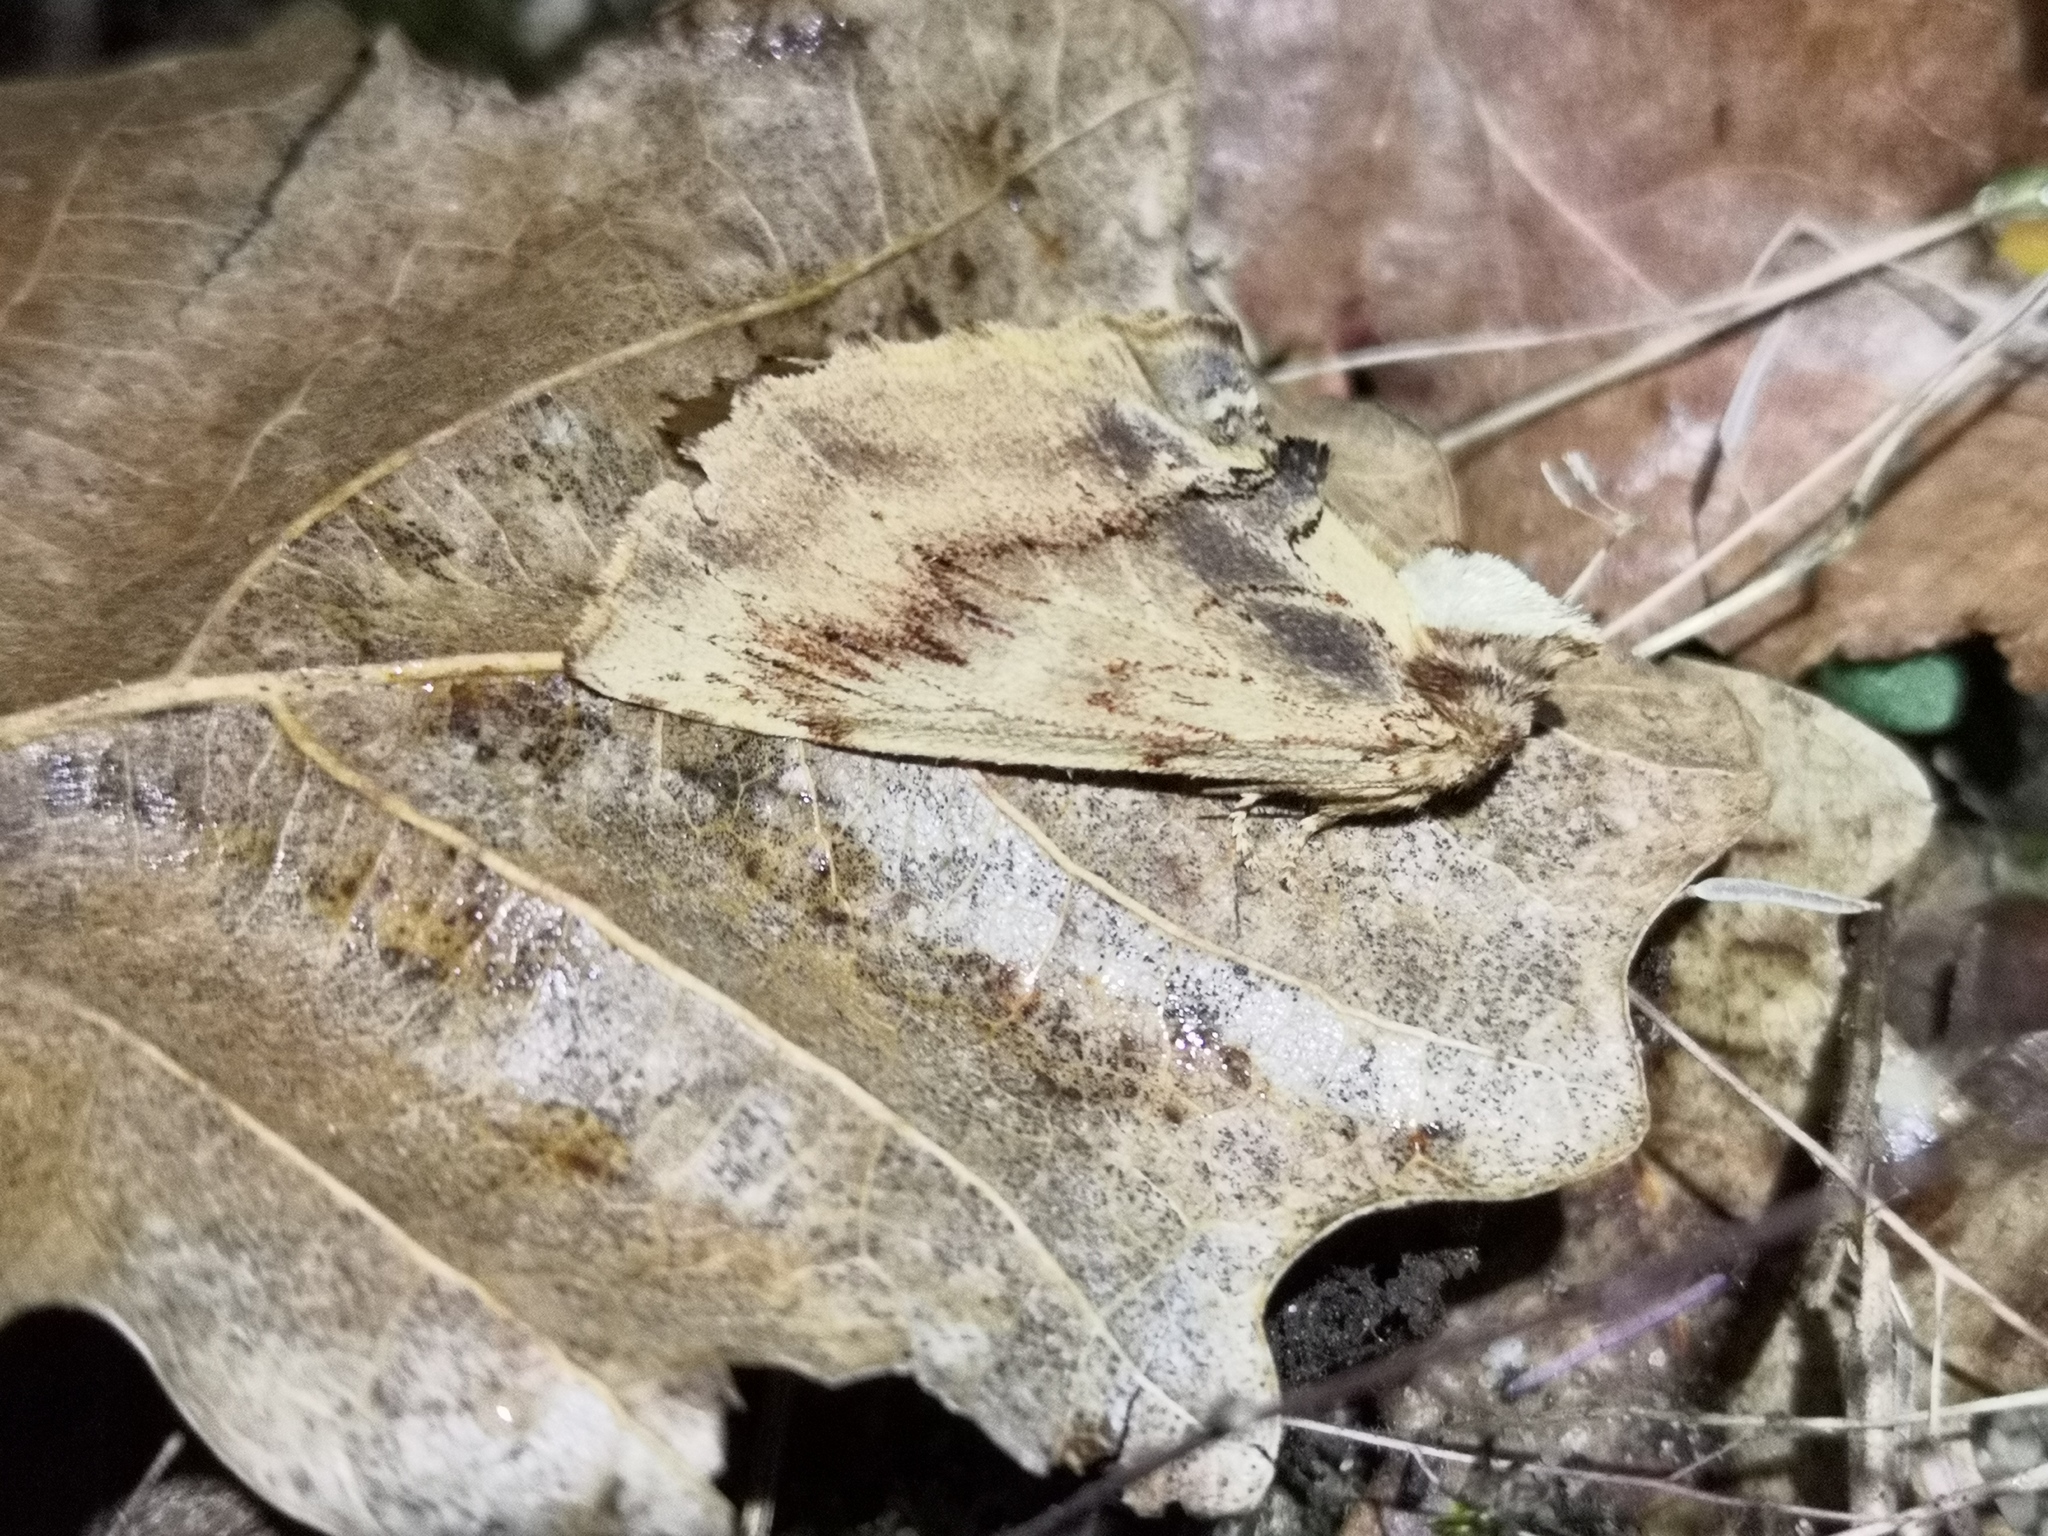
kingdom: Animalia
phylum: Arthropoda
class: Insecta
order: Lepidoptera
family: Notodontidae
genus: Ptilodon
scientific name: Ptilodon capucina
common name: Coxcomb prominent
